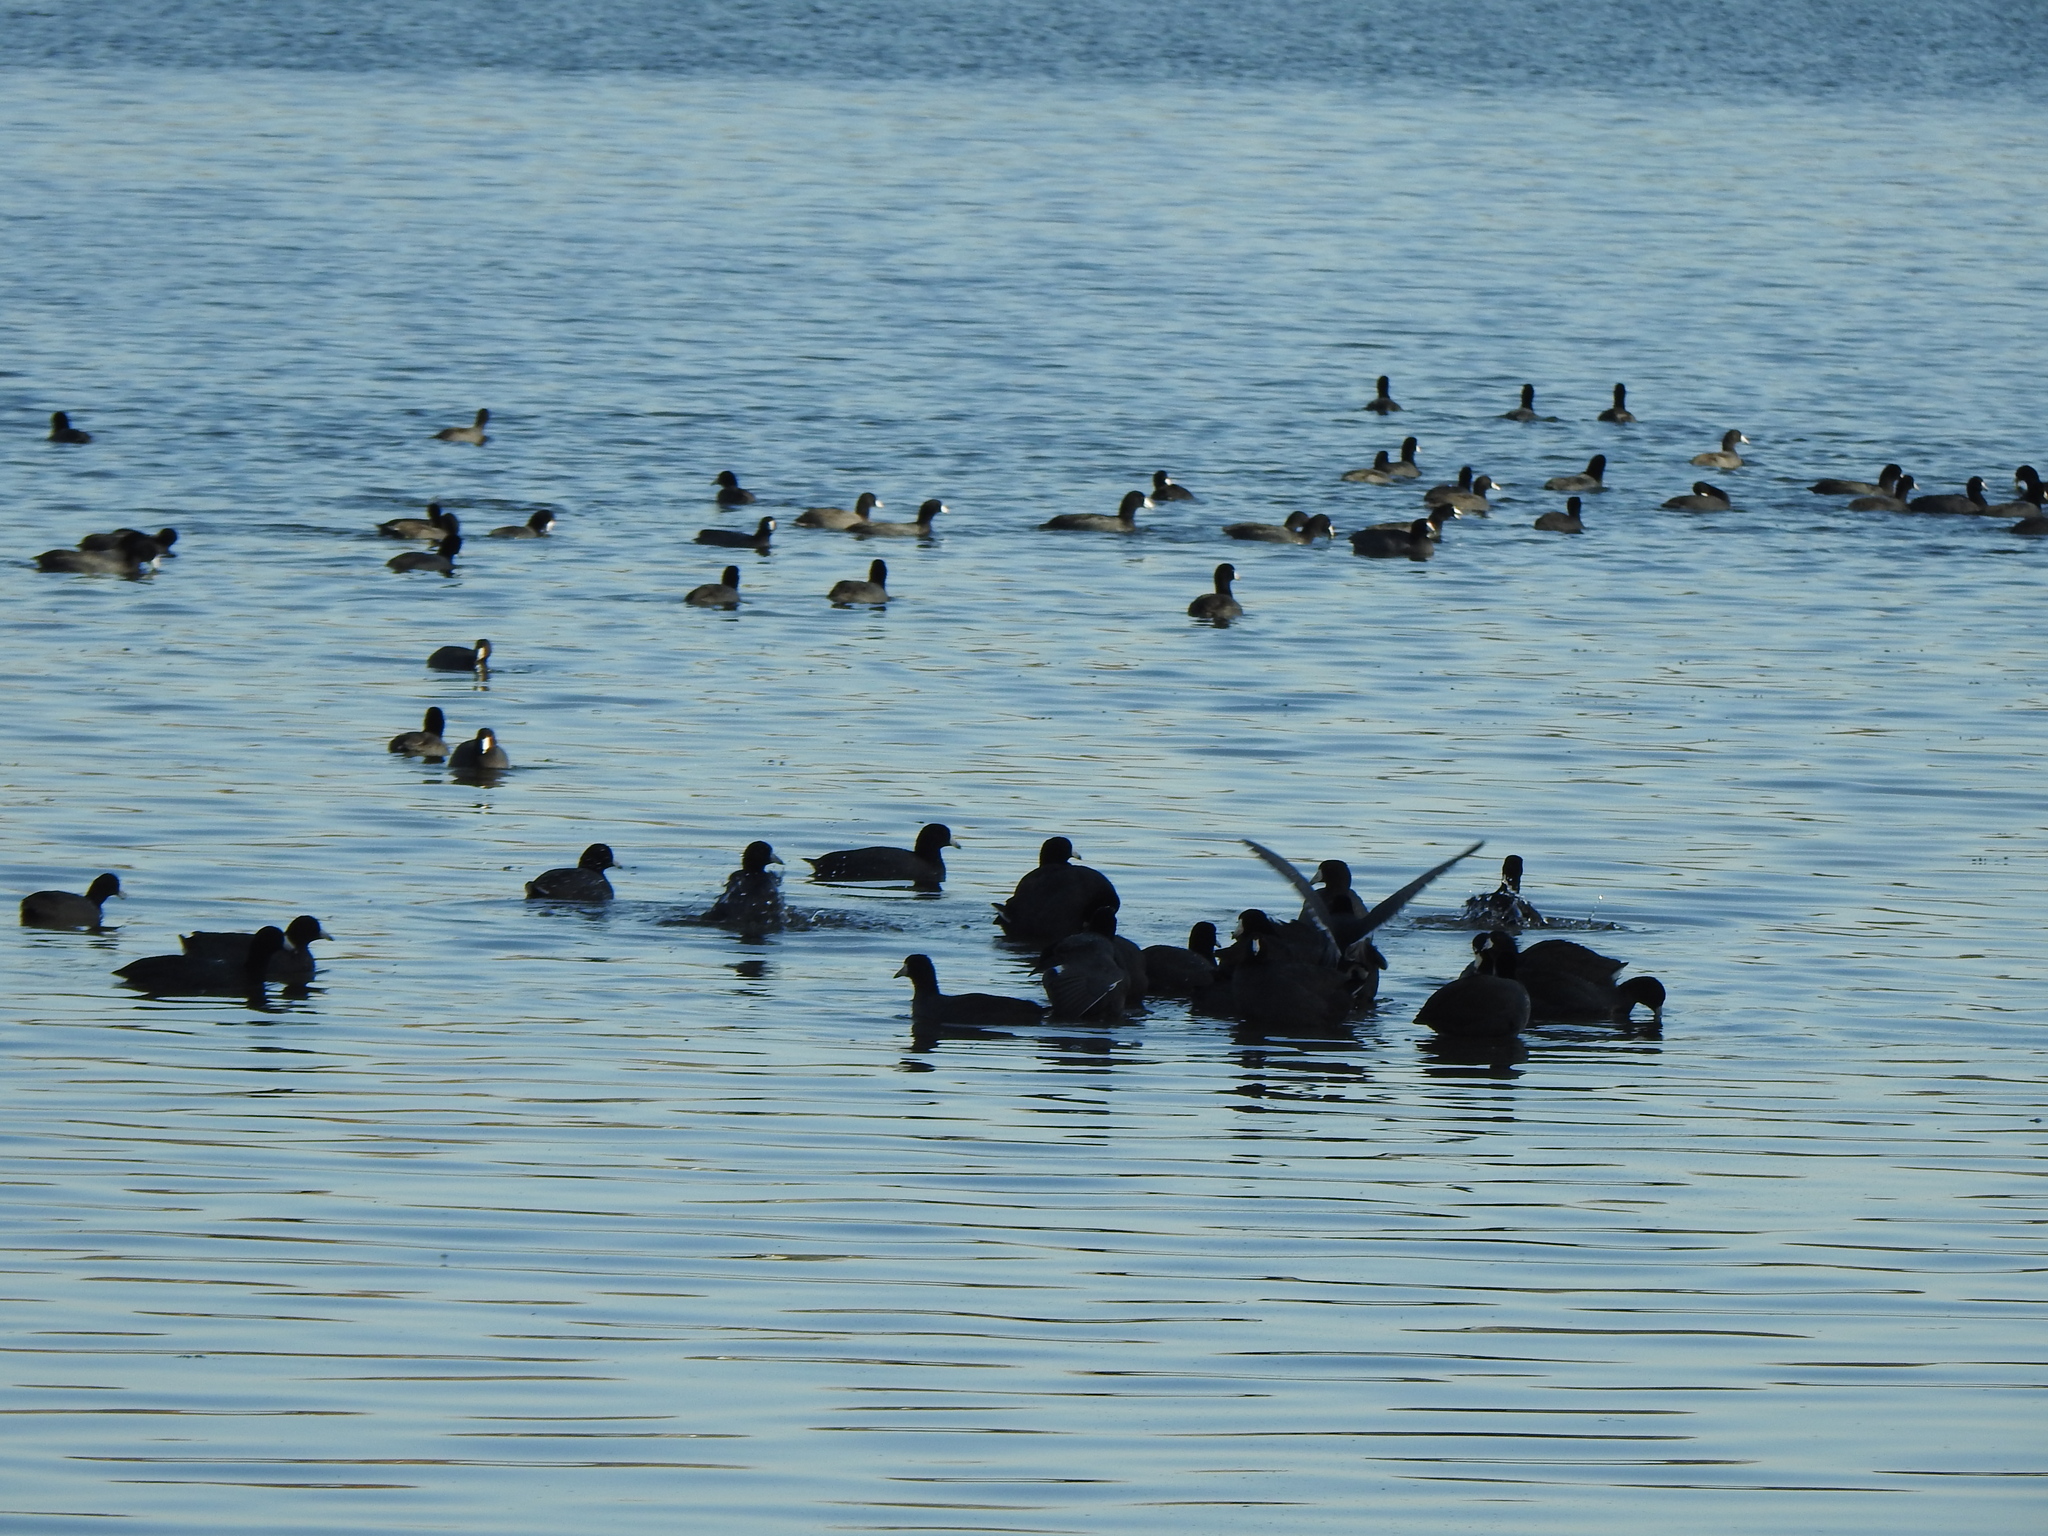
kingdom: Animalia
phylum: Chordata
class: Aves
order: Gruiformes
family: Rallidae
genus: Fulica
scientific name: Fulica americana
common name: American coot
